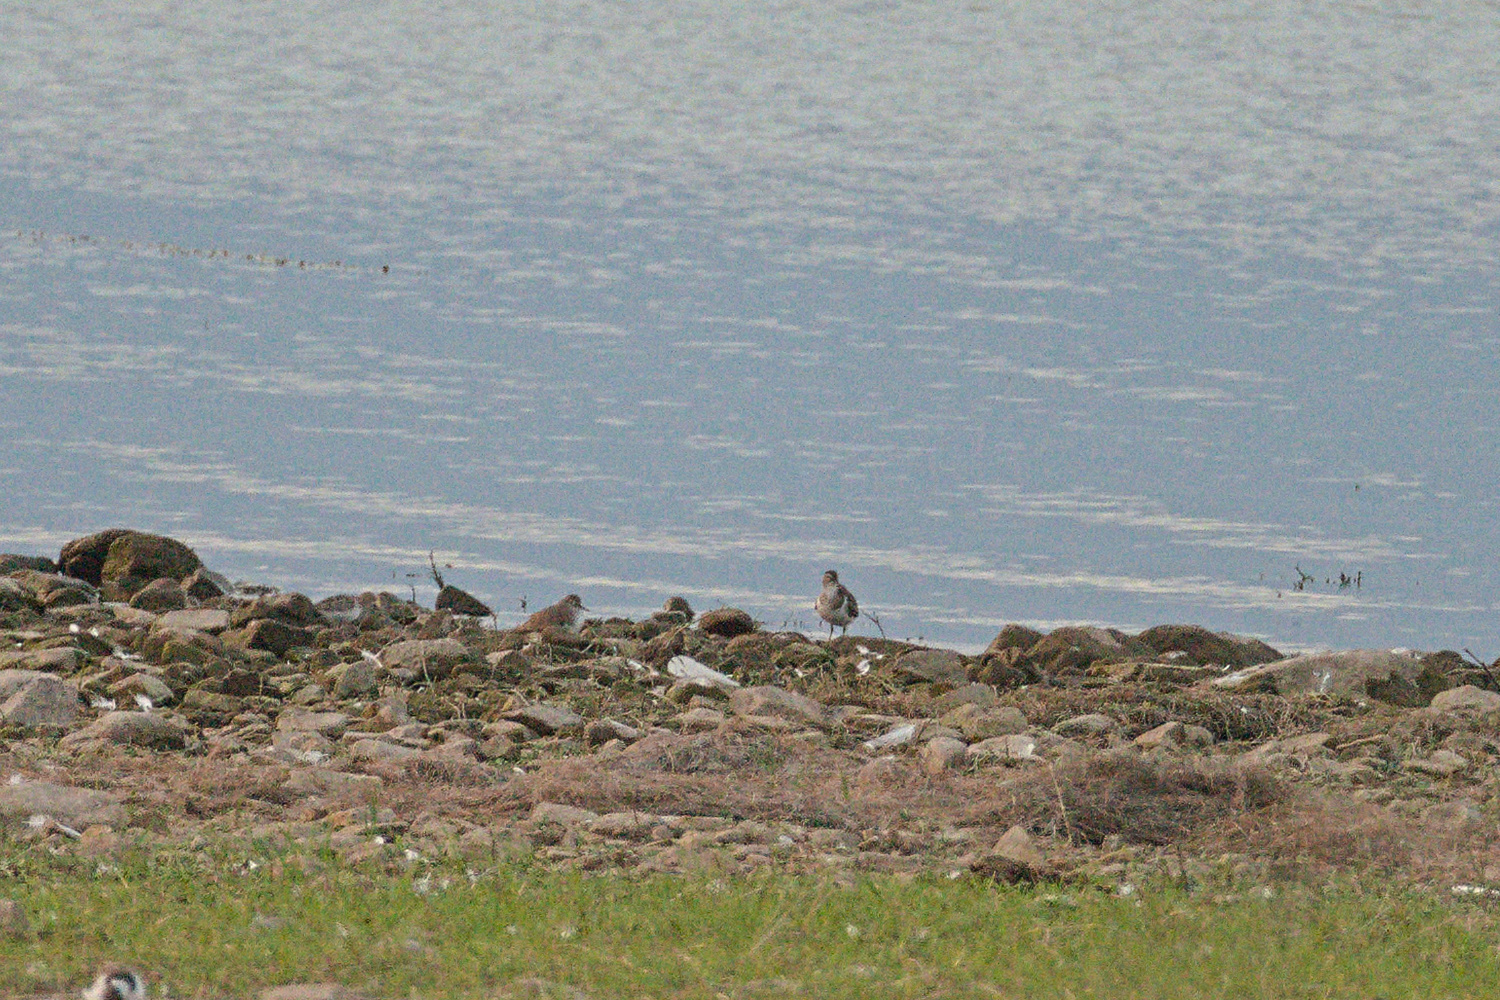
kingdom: Animalia
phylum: Chordata
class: Aves
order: Charadriiformes
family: Scolopacidae
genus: Actitis
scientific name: Actitis hypoleucos
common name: Common sandpiper
